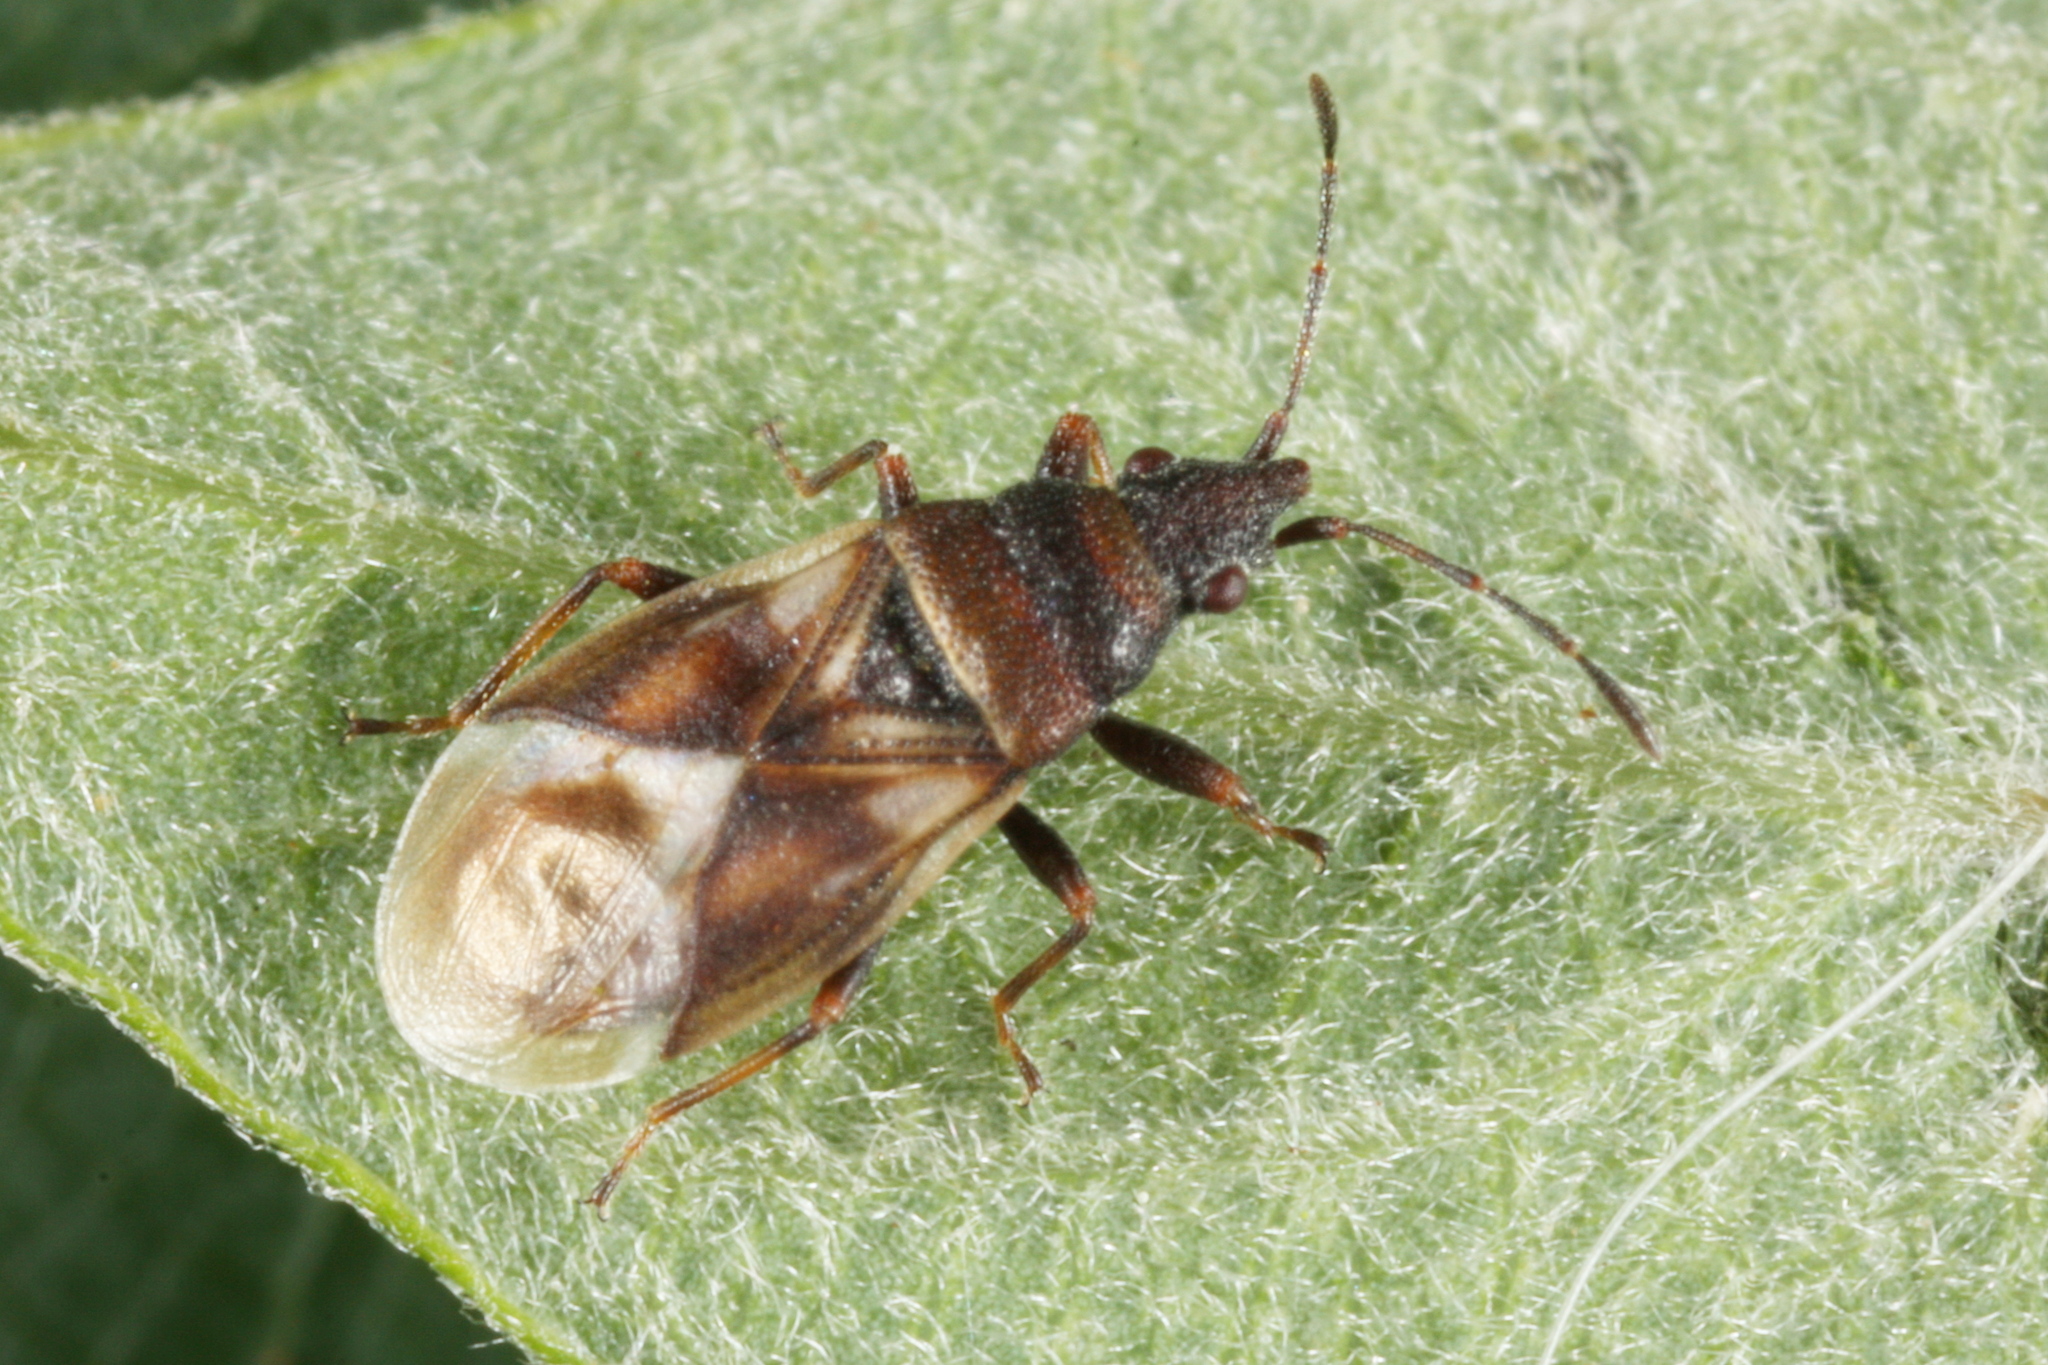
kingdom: Animalia
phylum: Arthropoda
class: Insecta
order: Hemiptera
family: Oxycarenidae
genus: Oxycarenus
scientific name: Oxycarenus modestus
